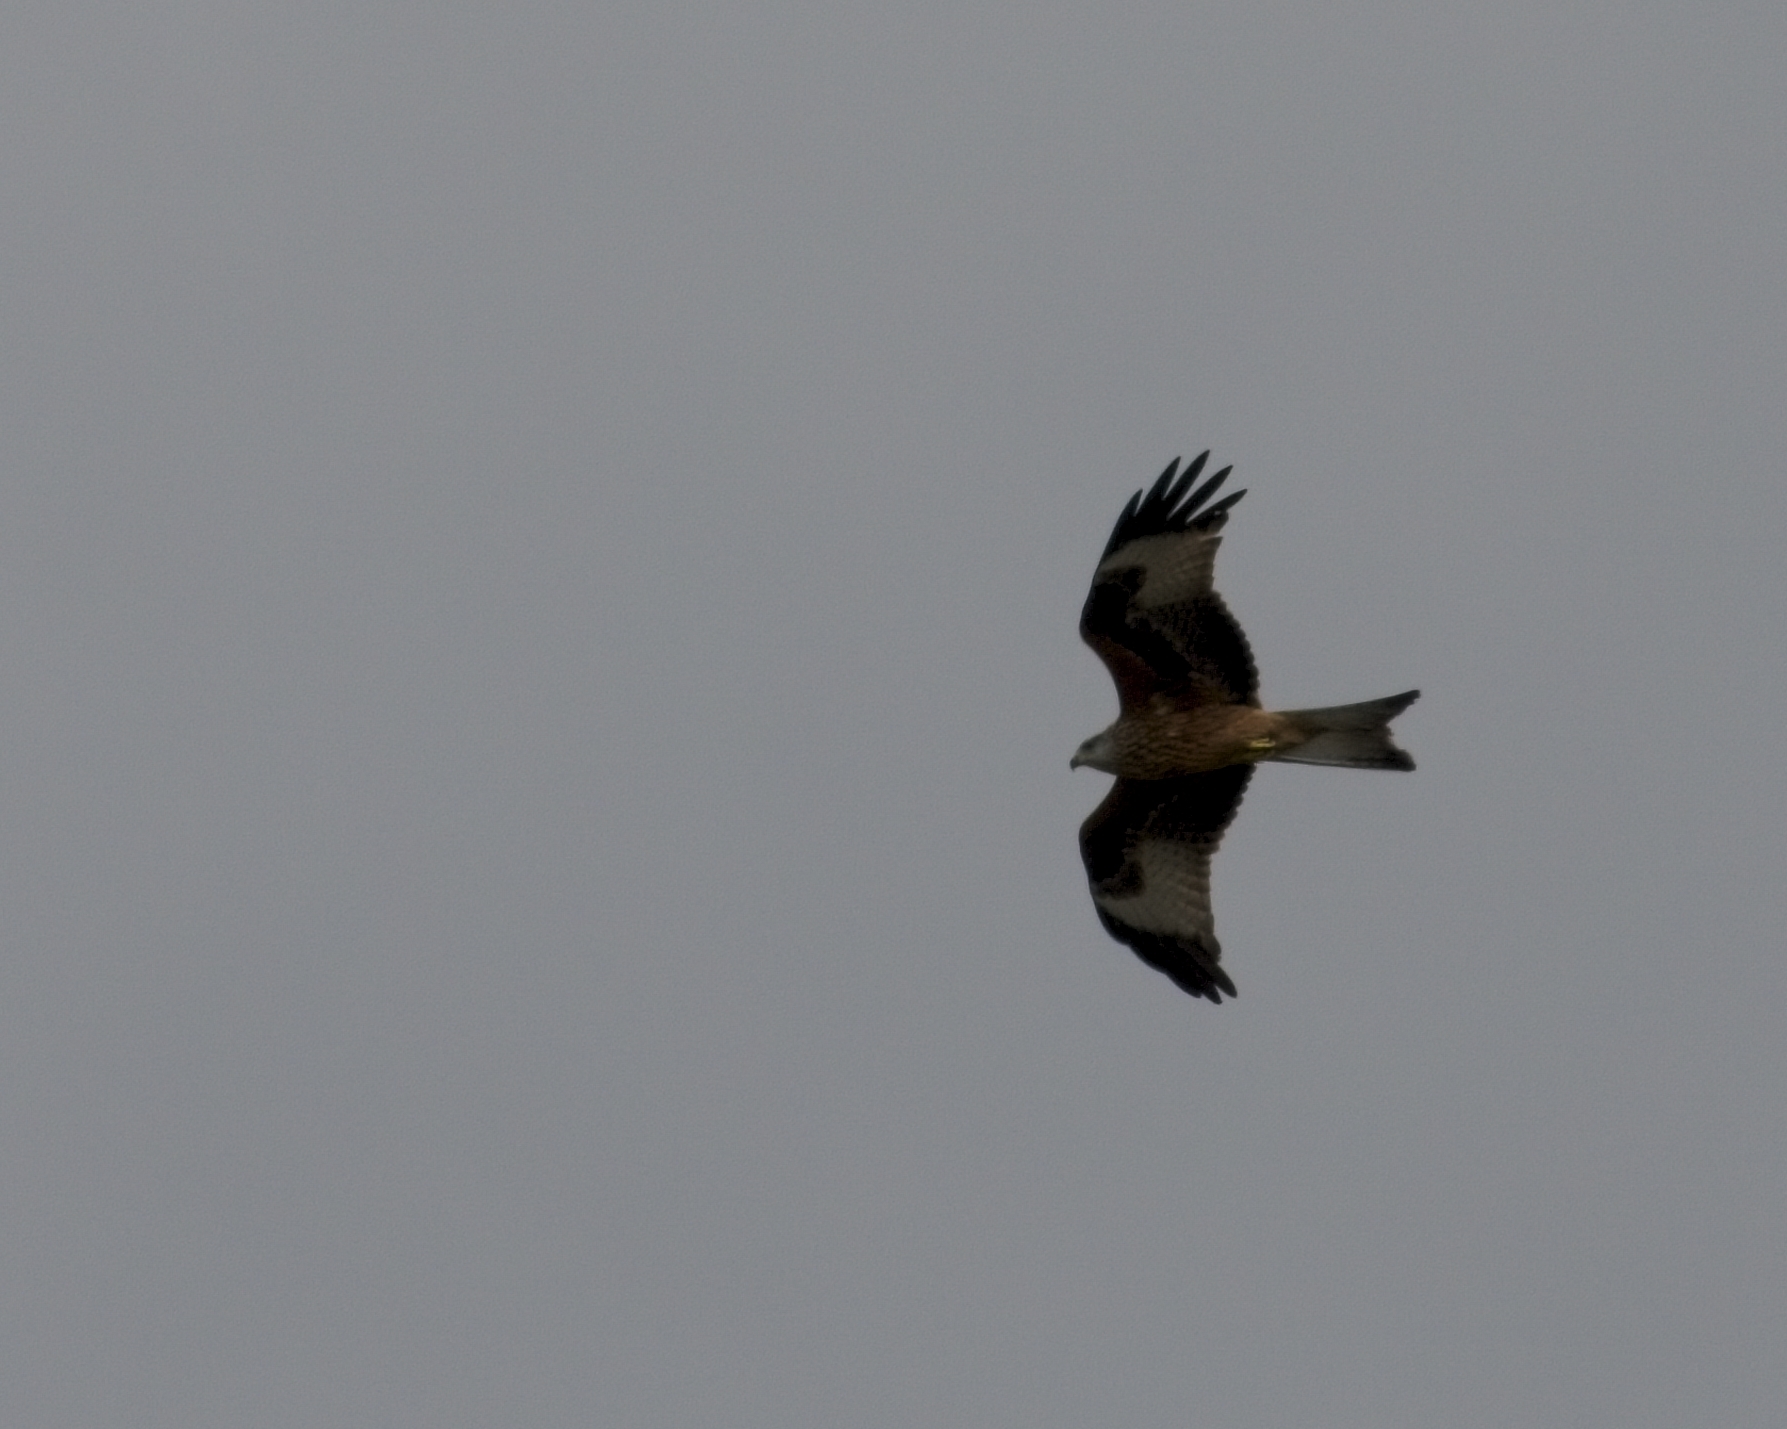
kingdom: Animalia
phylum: Chordata
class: Aves
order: Accipitriformes
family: Accipitridae
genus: Milvus
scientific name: Milvus milvus
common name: Red kite
